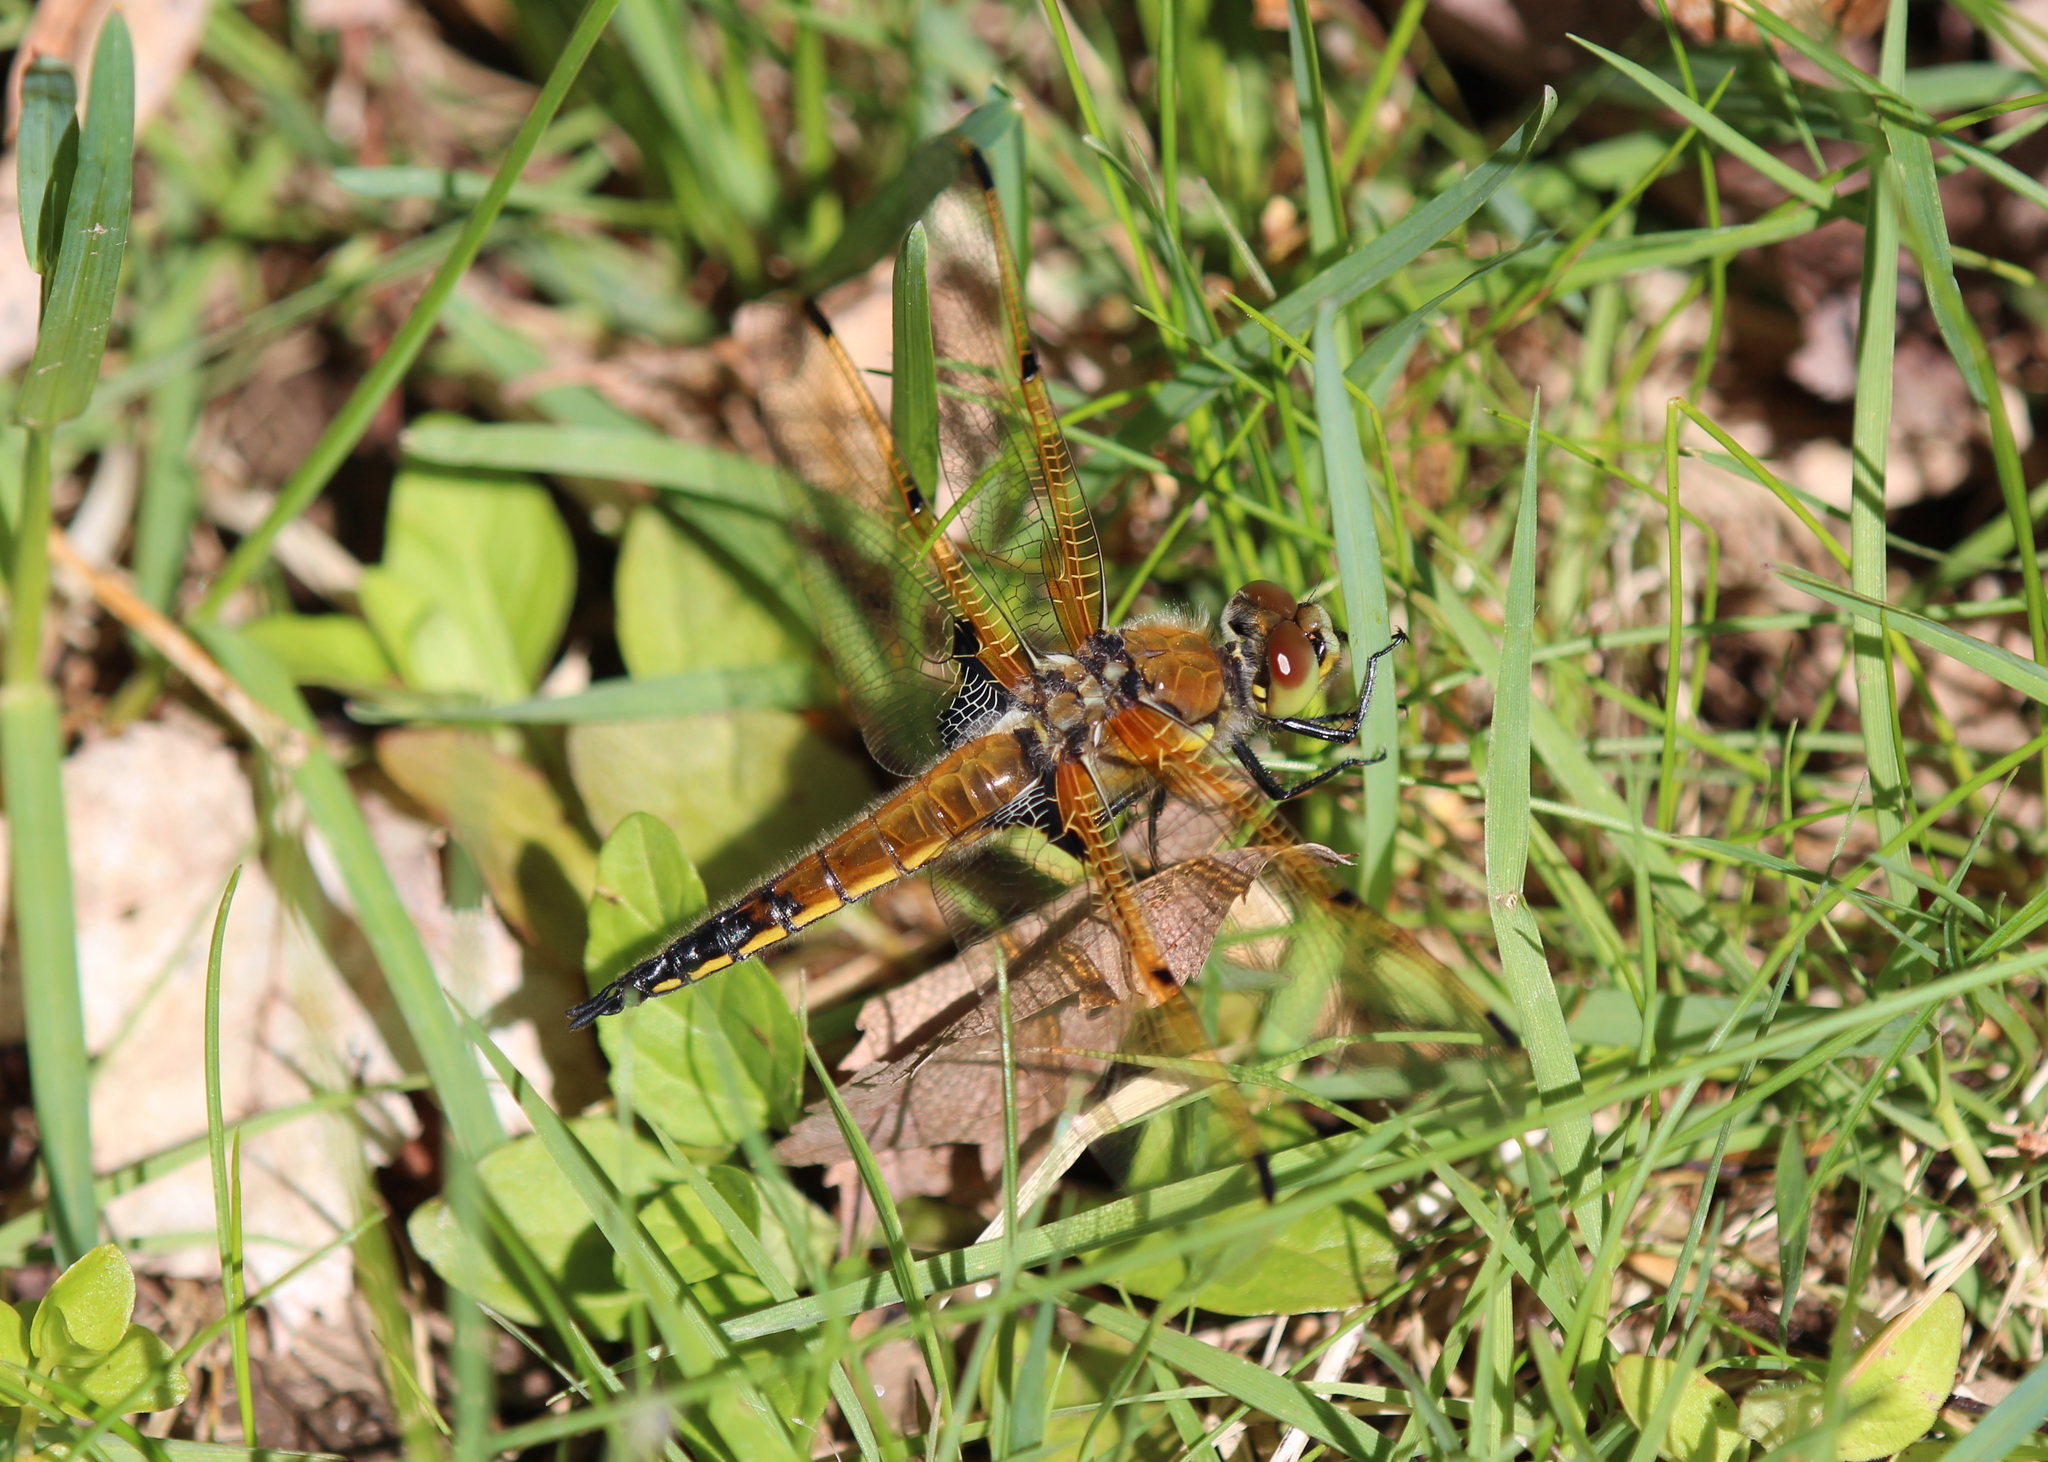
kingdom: Animalia
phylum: Arthropoda
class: Insecta
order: Odonata
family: Libellulidae
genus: Libellula
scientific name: Libellula quadrimaculata
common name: Four-spotted chaser
